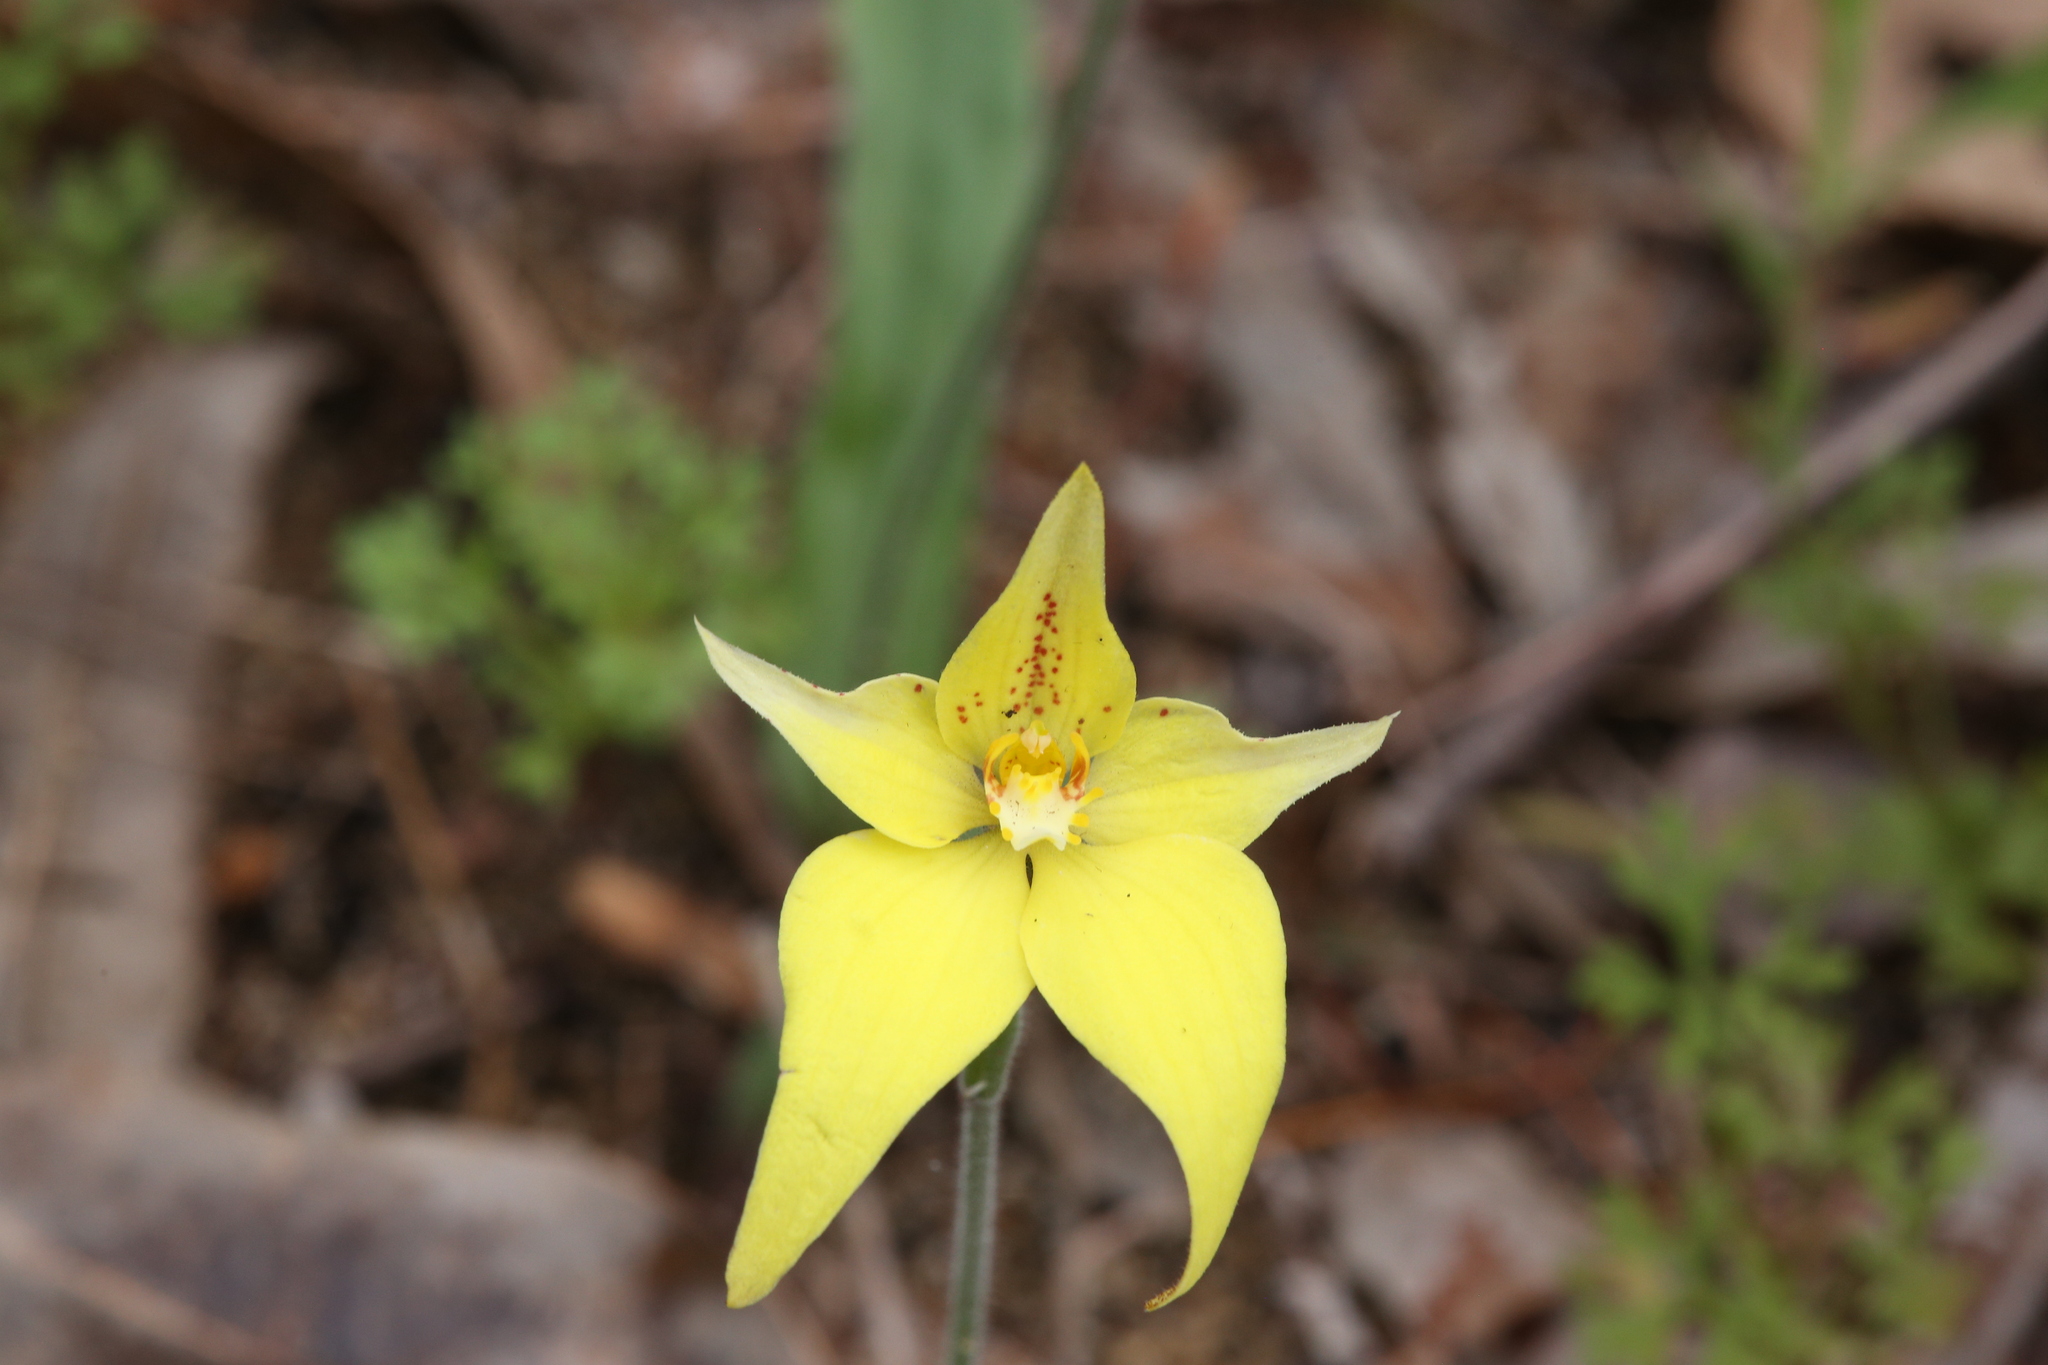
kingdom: Plantae
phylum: Tracheophyta
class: Liliopsida
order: Asparagales
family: Orchidaceae
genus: Caladenia
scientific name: Caladenia flava
